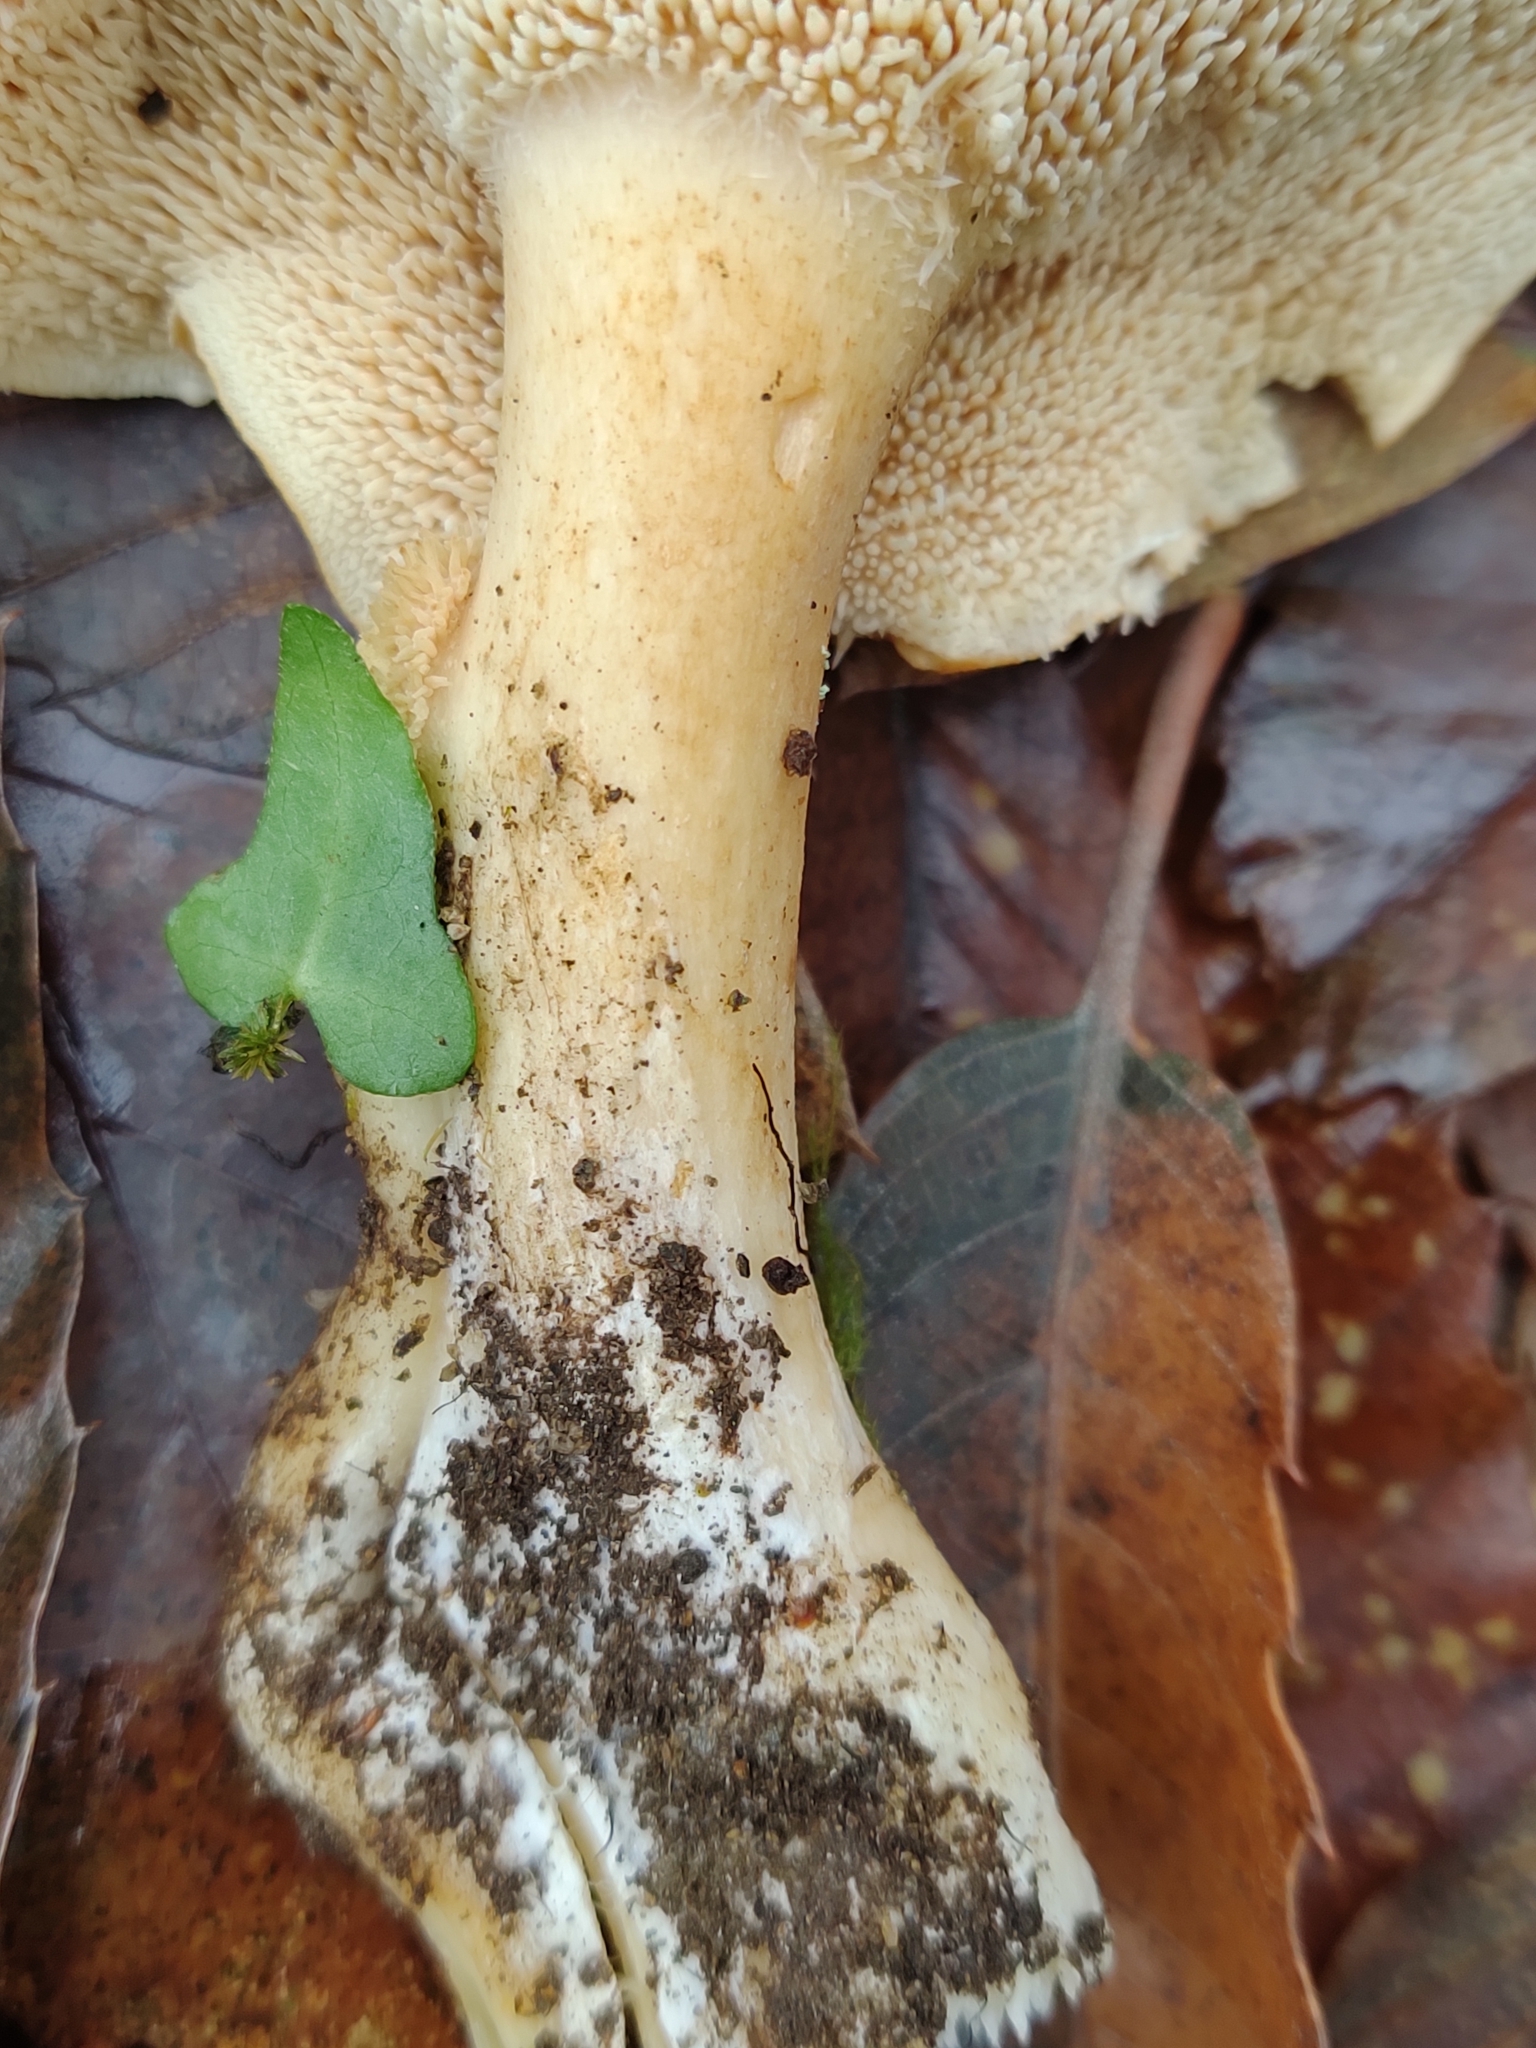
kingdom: Fungi
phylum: Basidiomycota
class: Agaricomycetes
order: Cantharellales
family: Hydnaceae
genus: Hydnum
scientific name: Hydnum repandum
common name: Wood hedgehog
